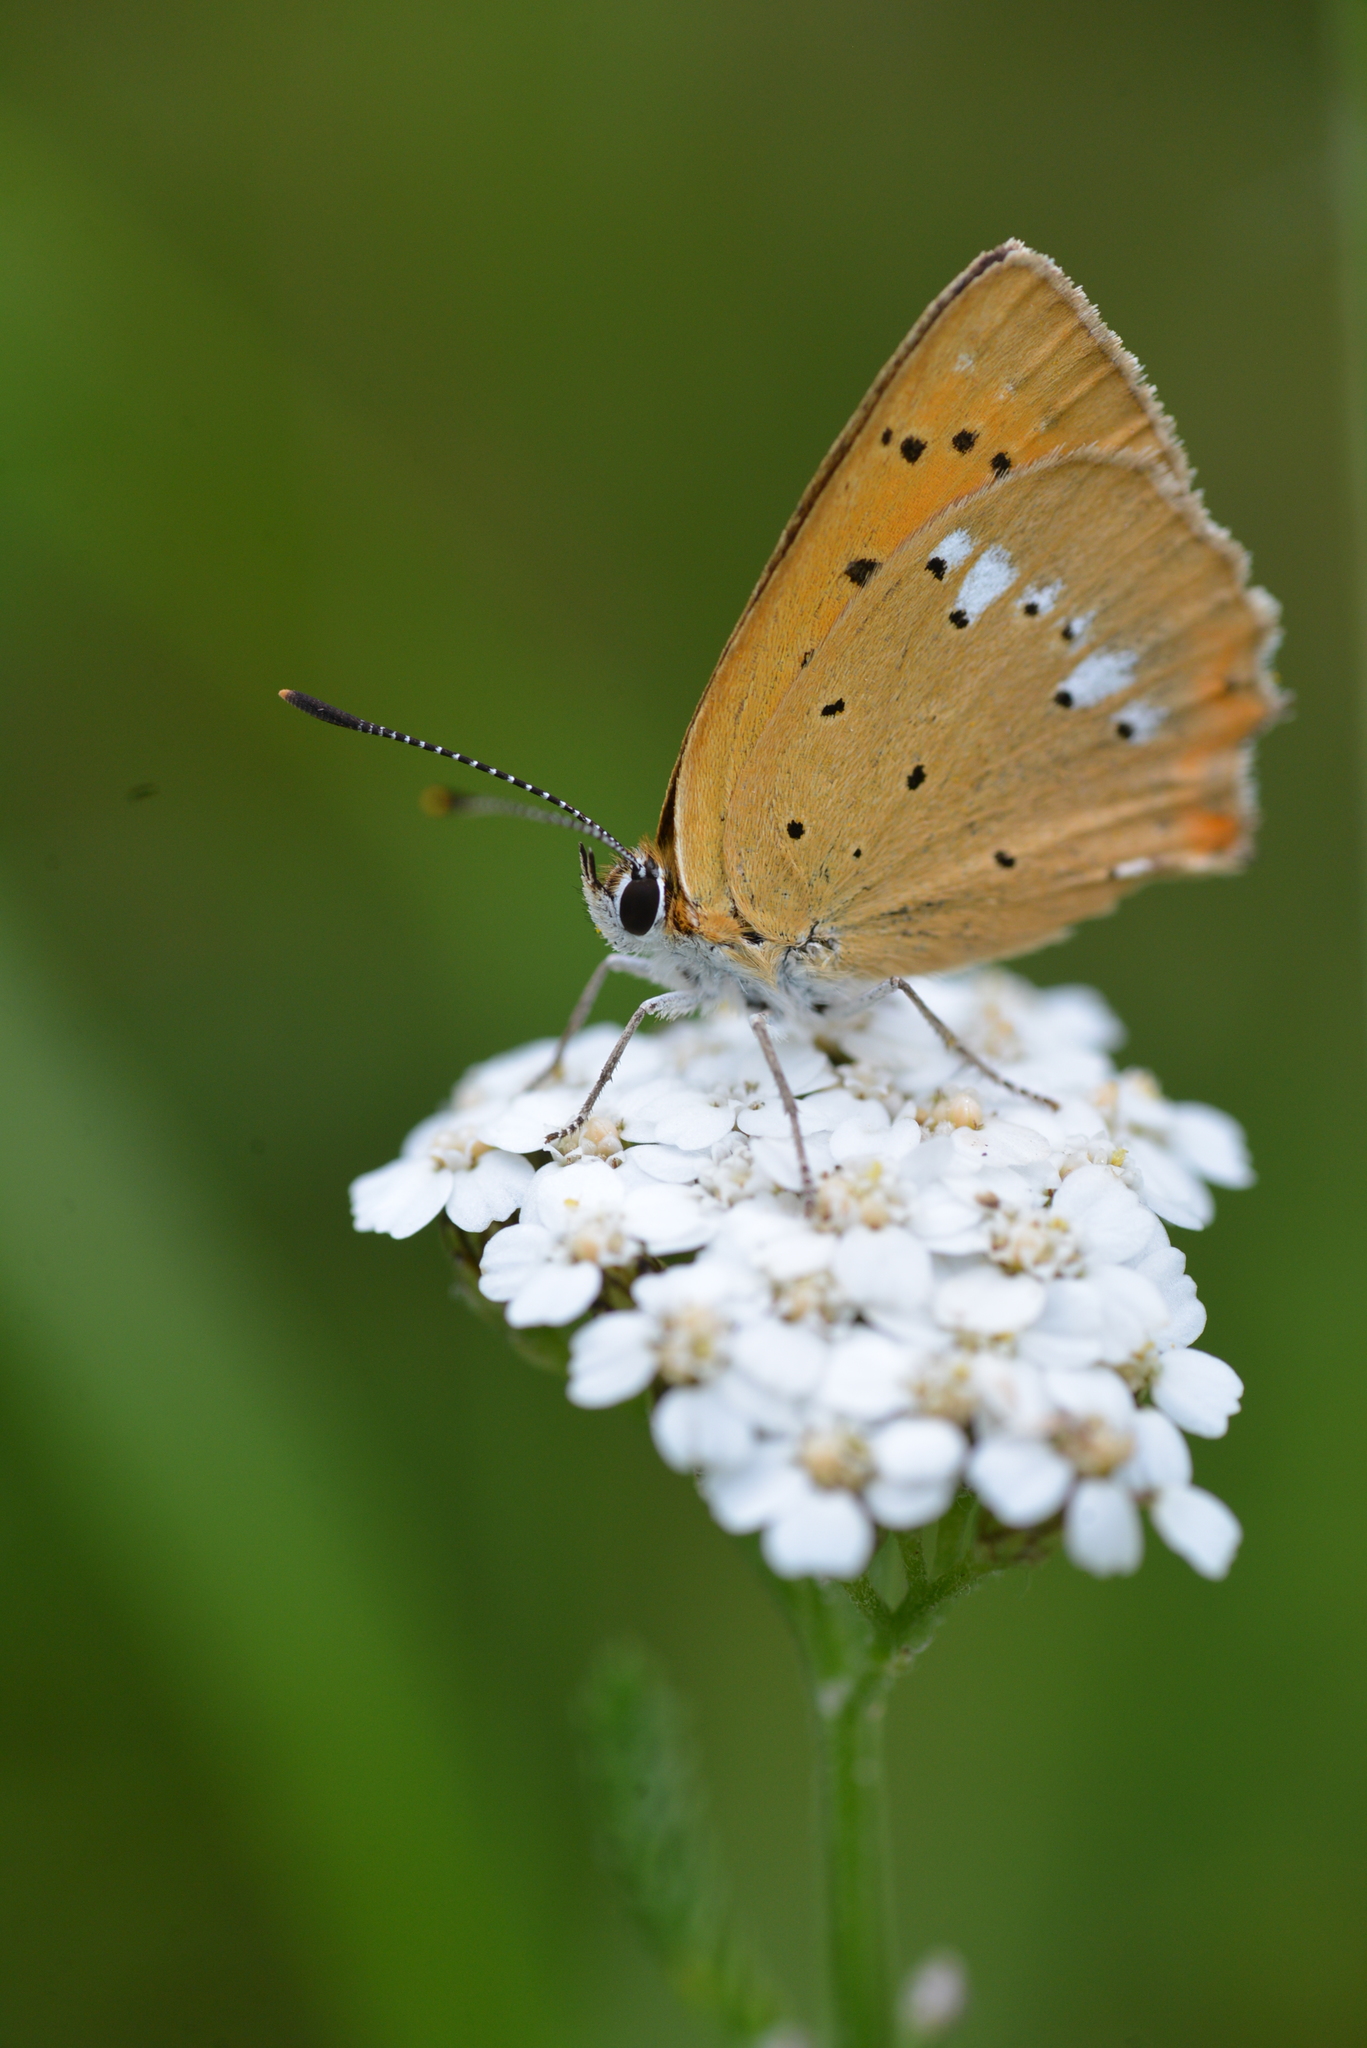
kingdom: Animalia
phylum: Arthropoda
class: Insecta
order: Lepidoptera
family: Lycaenidae
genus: Lycaena
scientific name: Lycaena virgaureae
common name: Scarce copper
